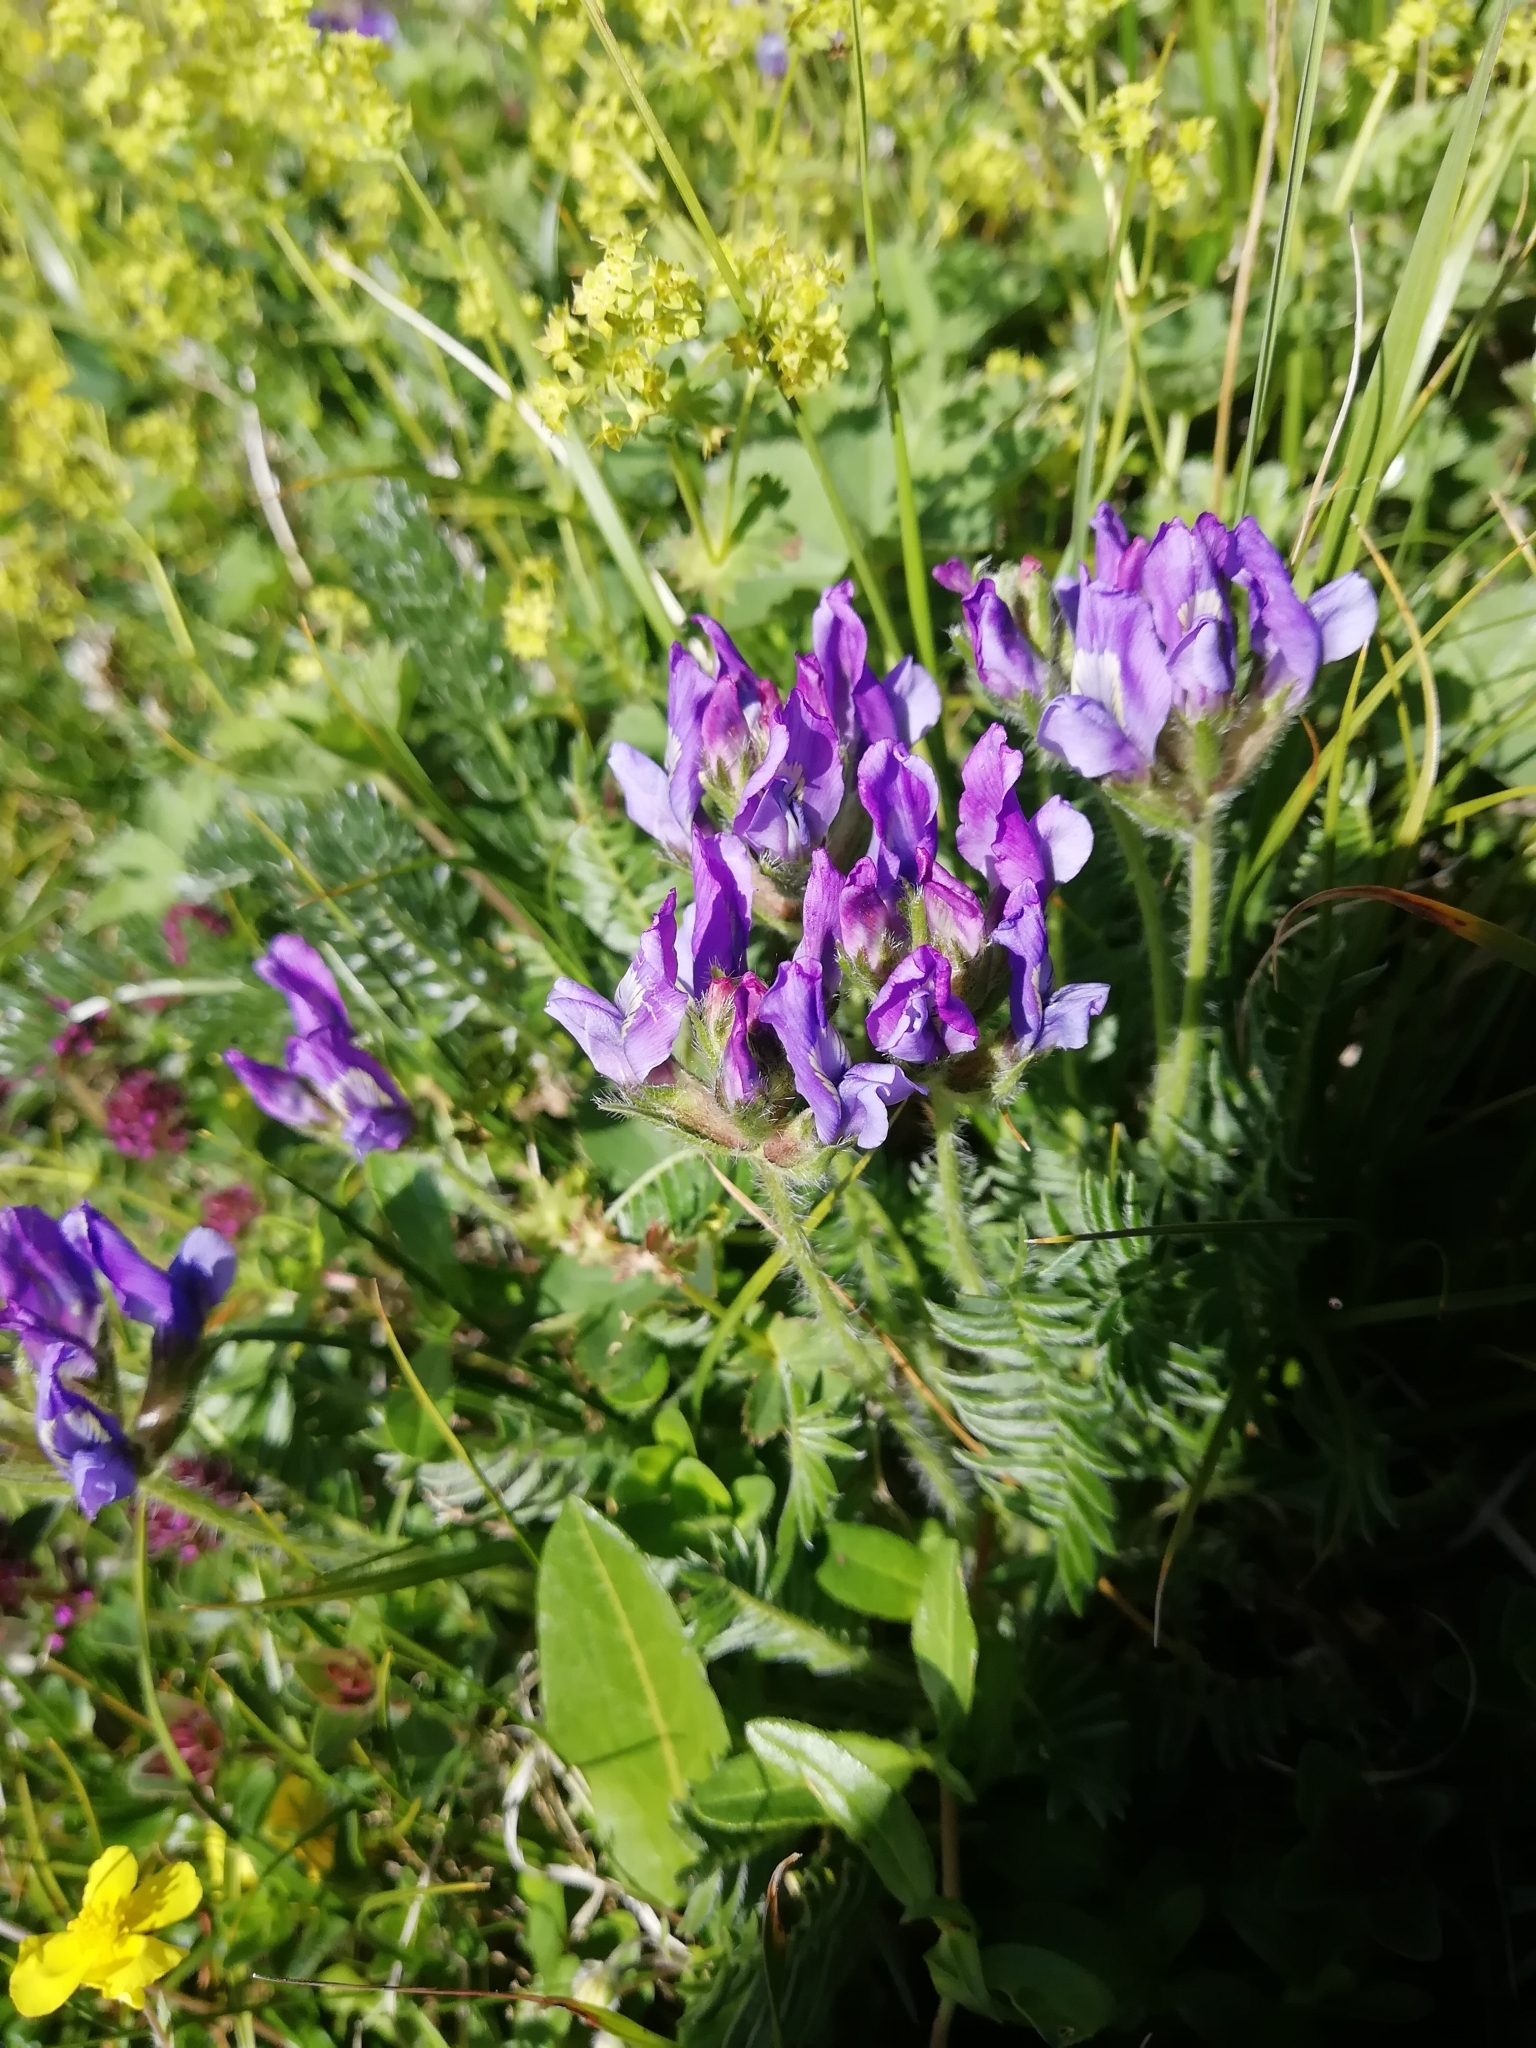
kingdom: Plantae
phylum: Tracheophyta
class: Magnoliopsida
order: Fabales
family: Fabaceae
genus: Oxytropis
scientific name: Oxytropis lazica
